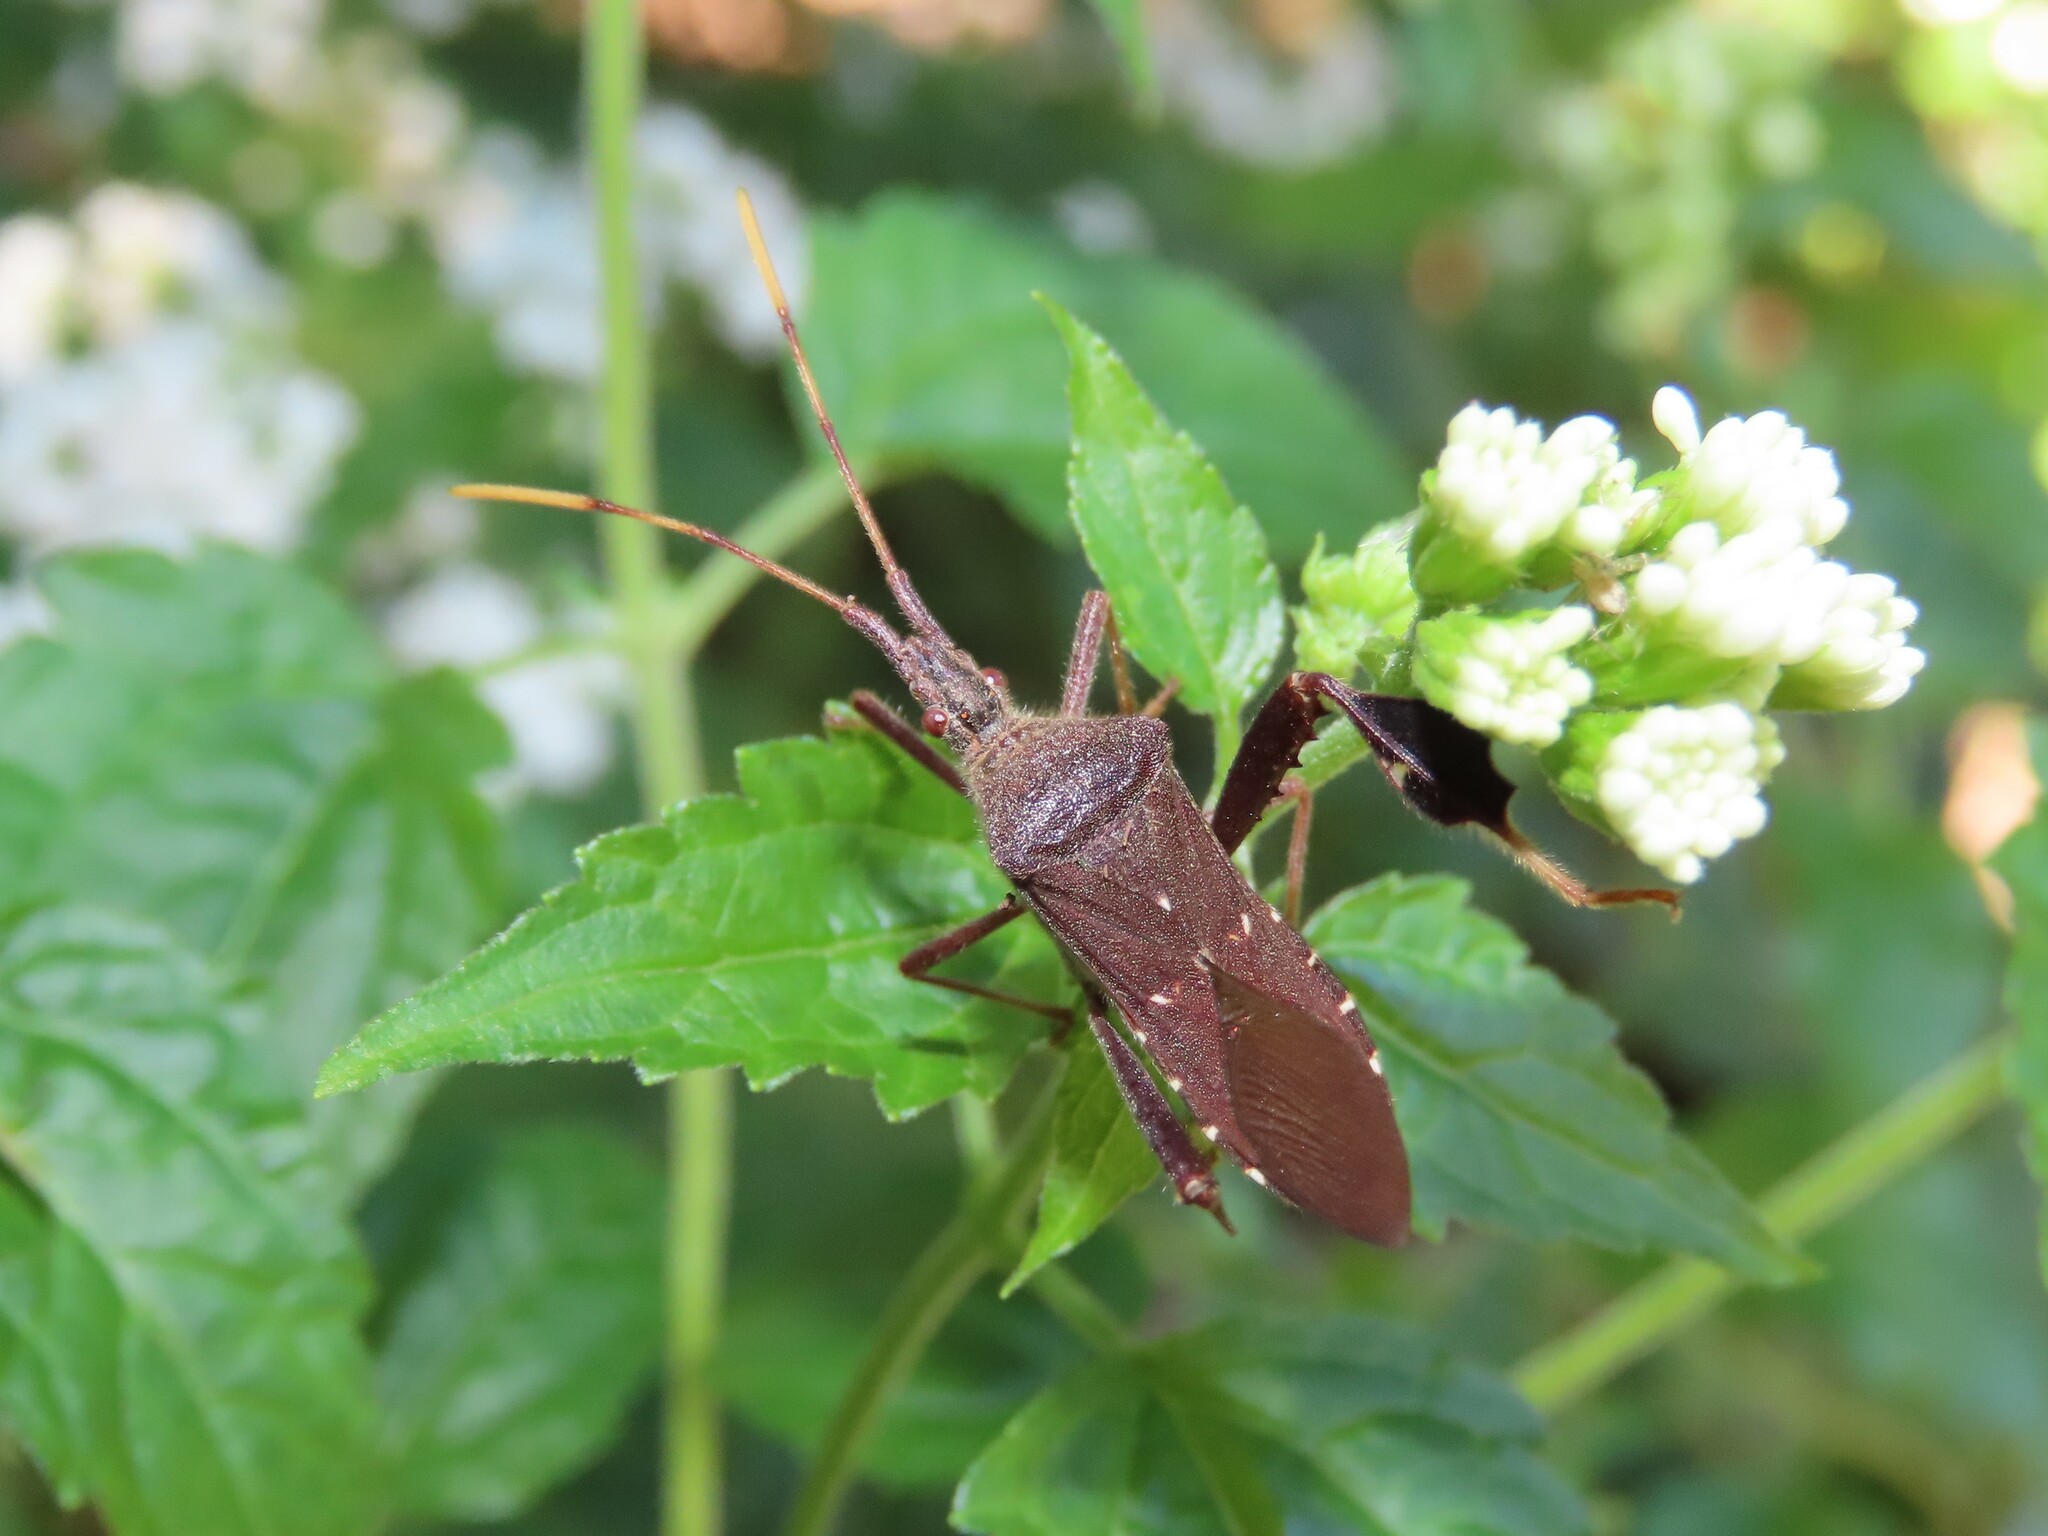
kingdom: Animalia
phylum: Arthropoda
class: Insecta
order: Hemiptera
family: Coreidae
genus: Leptoglossus
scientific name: Leptoglossus oppositus
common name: Northern leaf-footed bug
